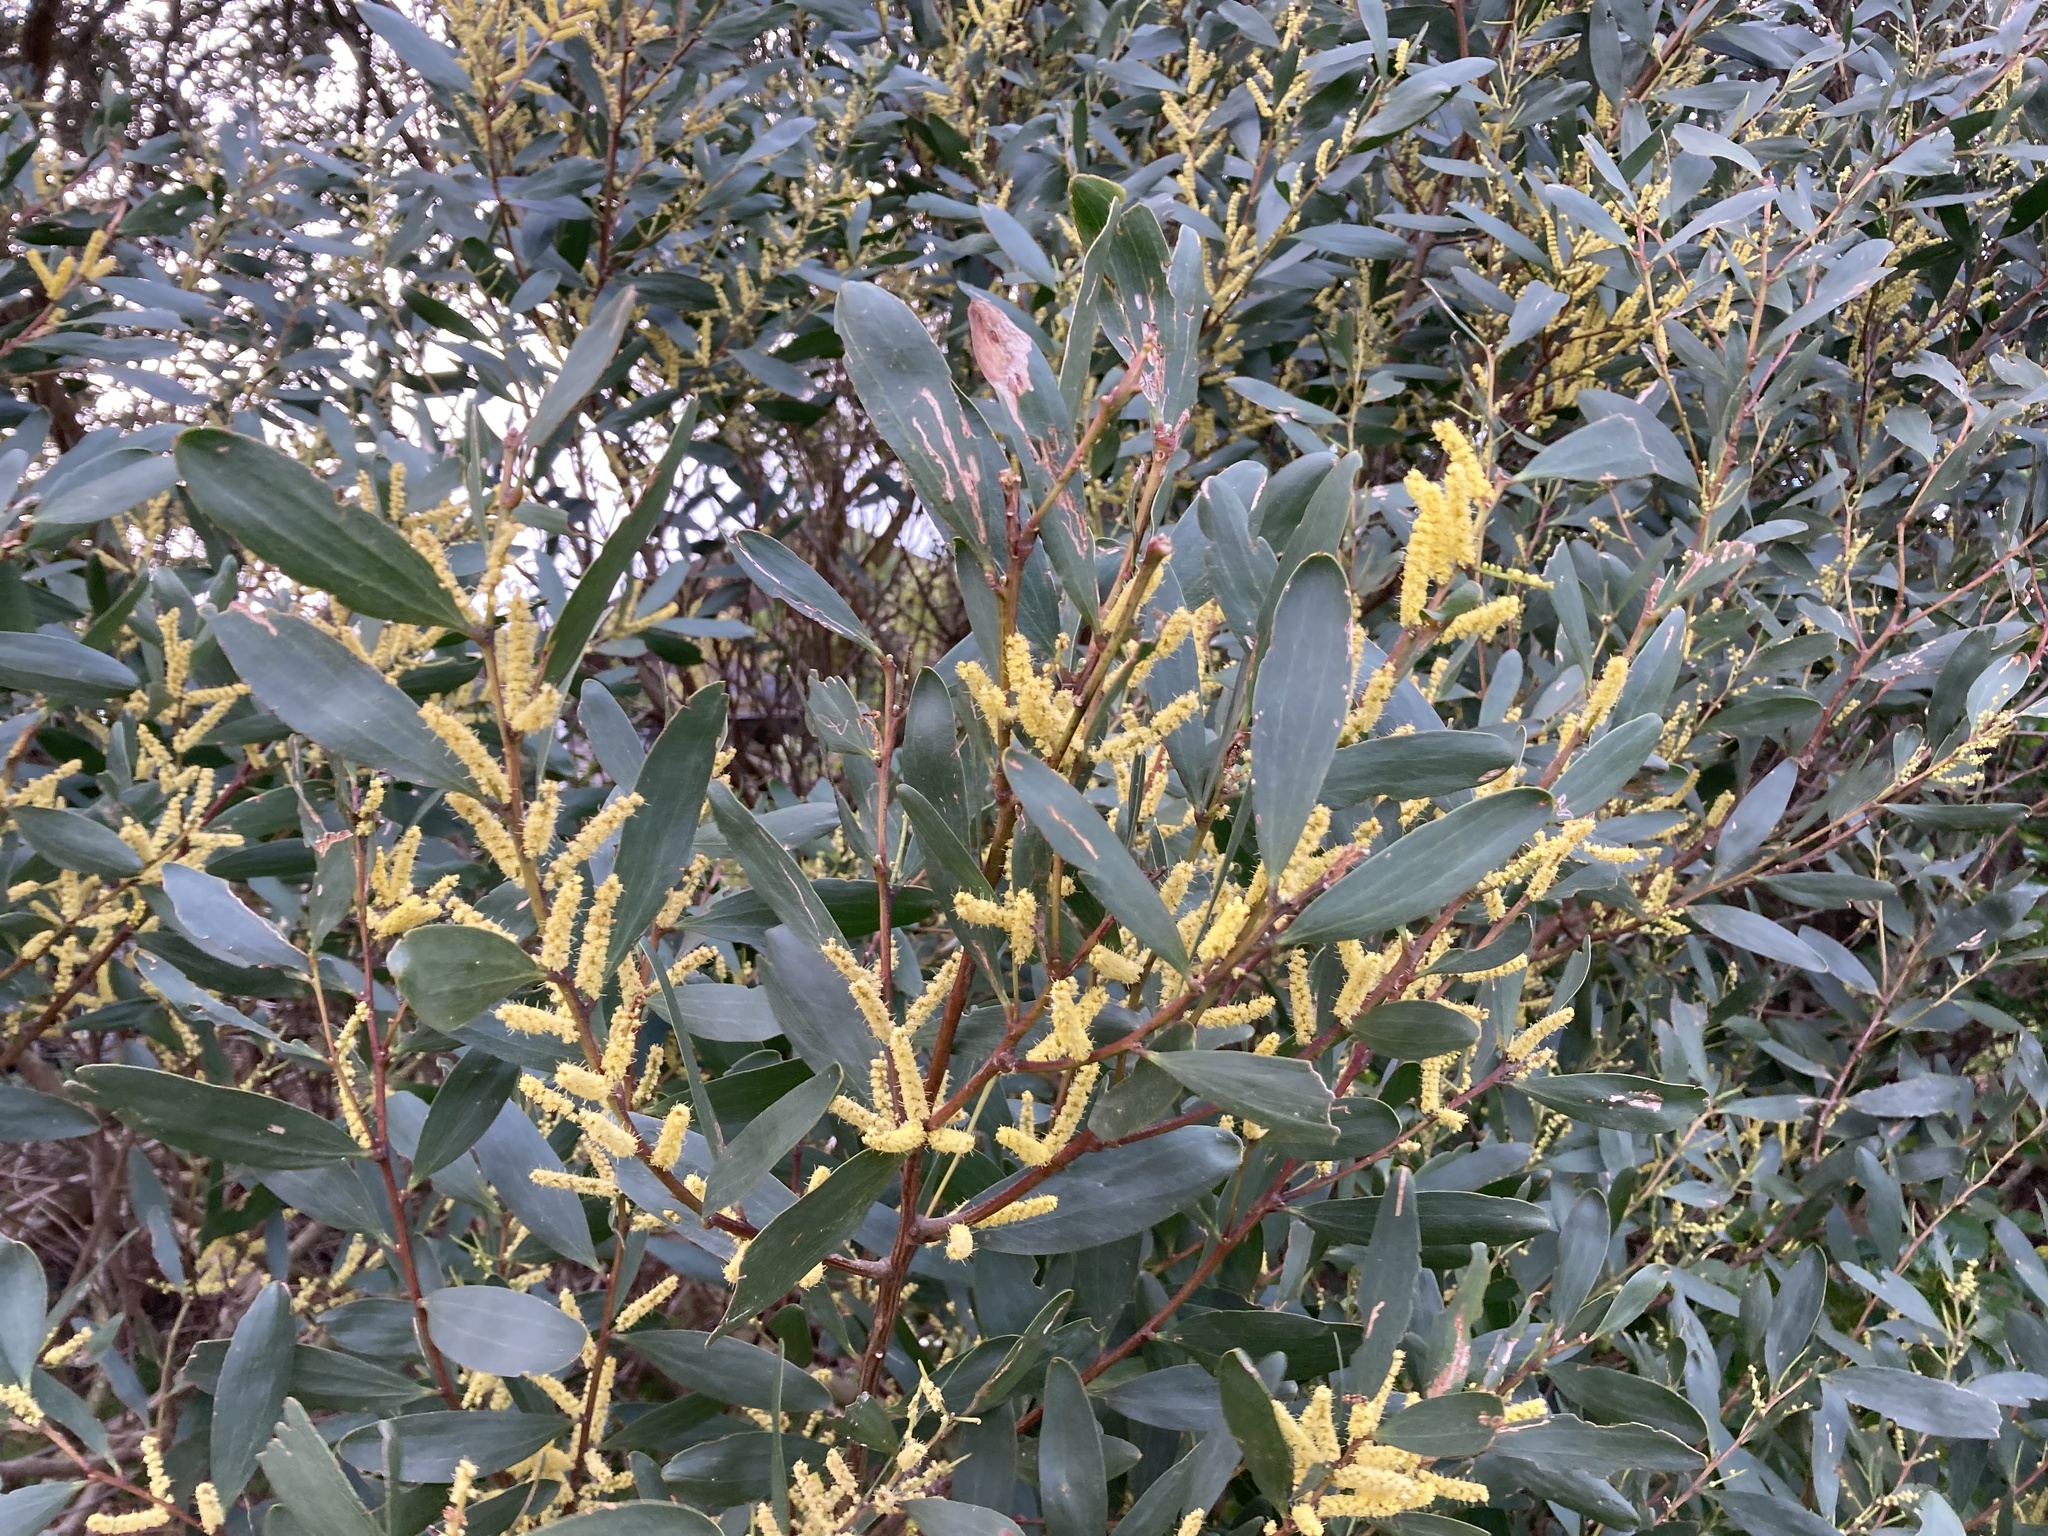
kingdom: Plantae
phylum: Tracheophyta
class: Magnoliopsida
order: Fabales
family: Fabaceae
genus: Acacia
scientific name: Acacia longifolia
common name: Sydney golden wattle
